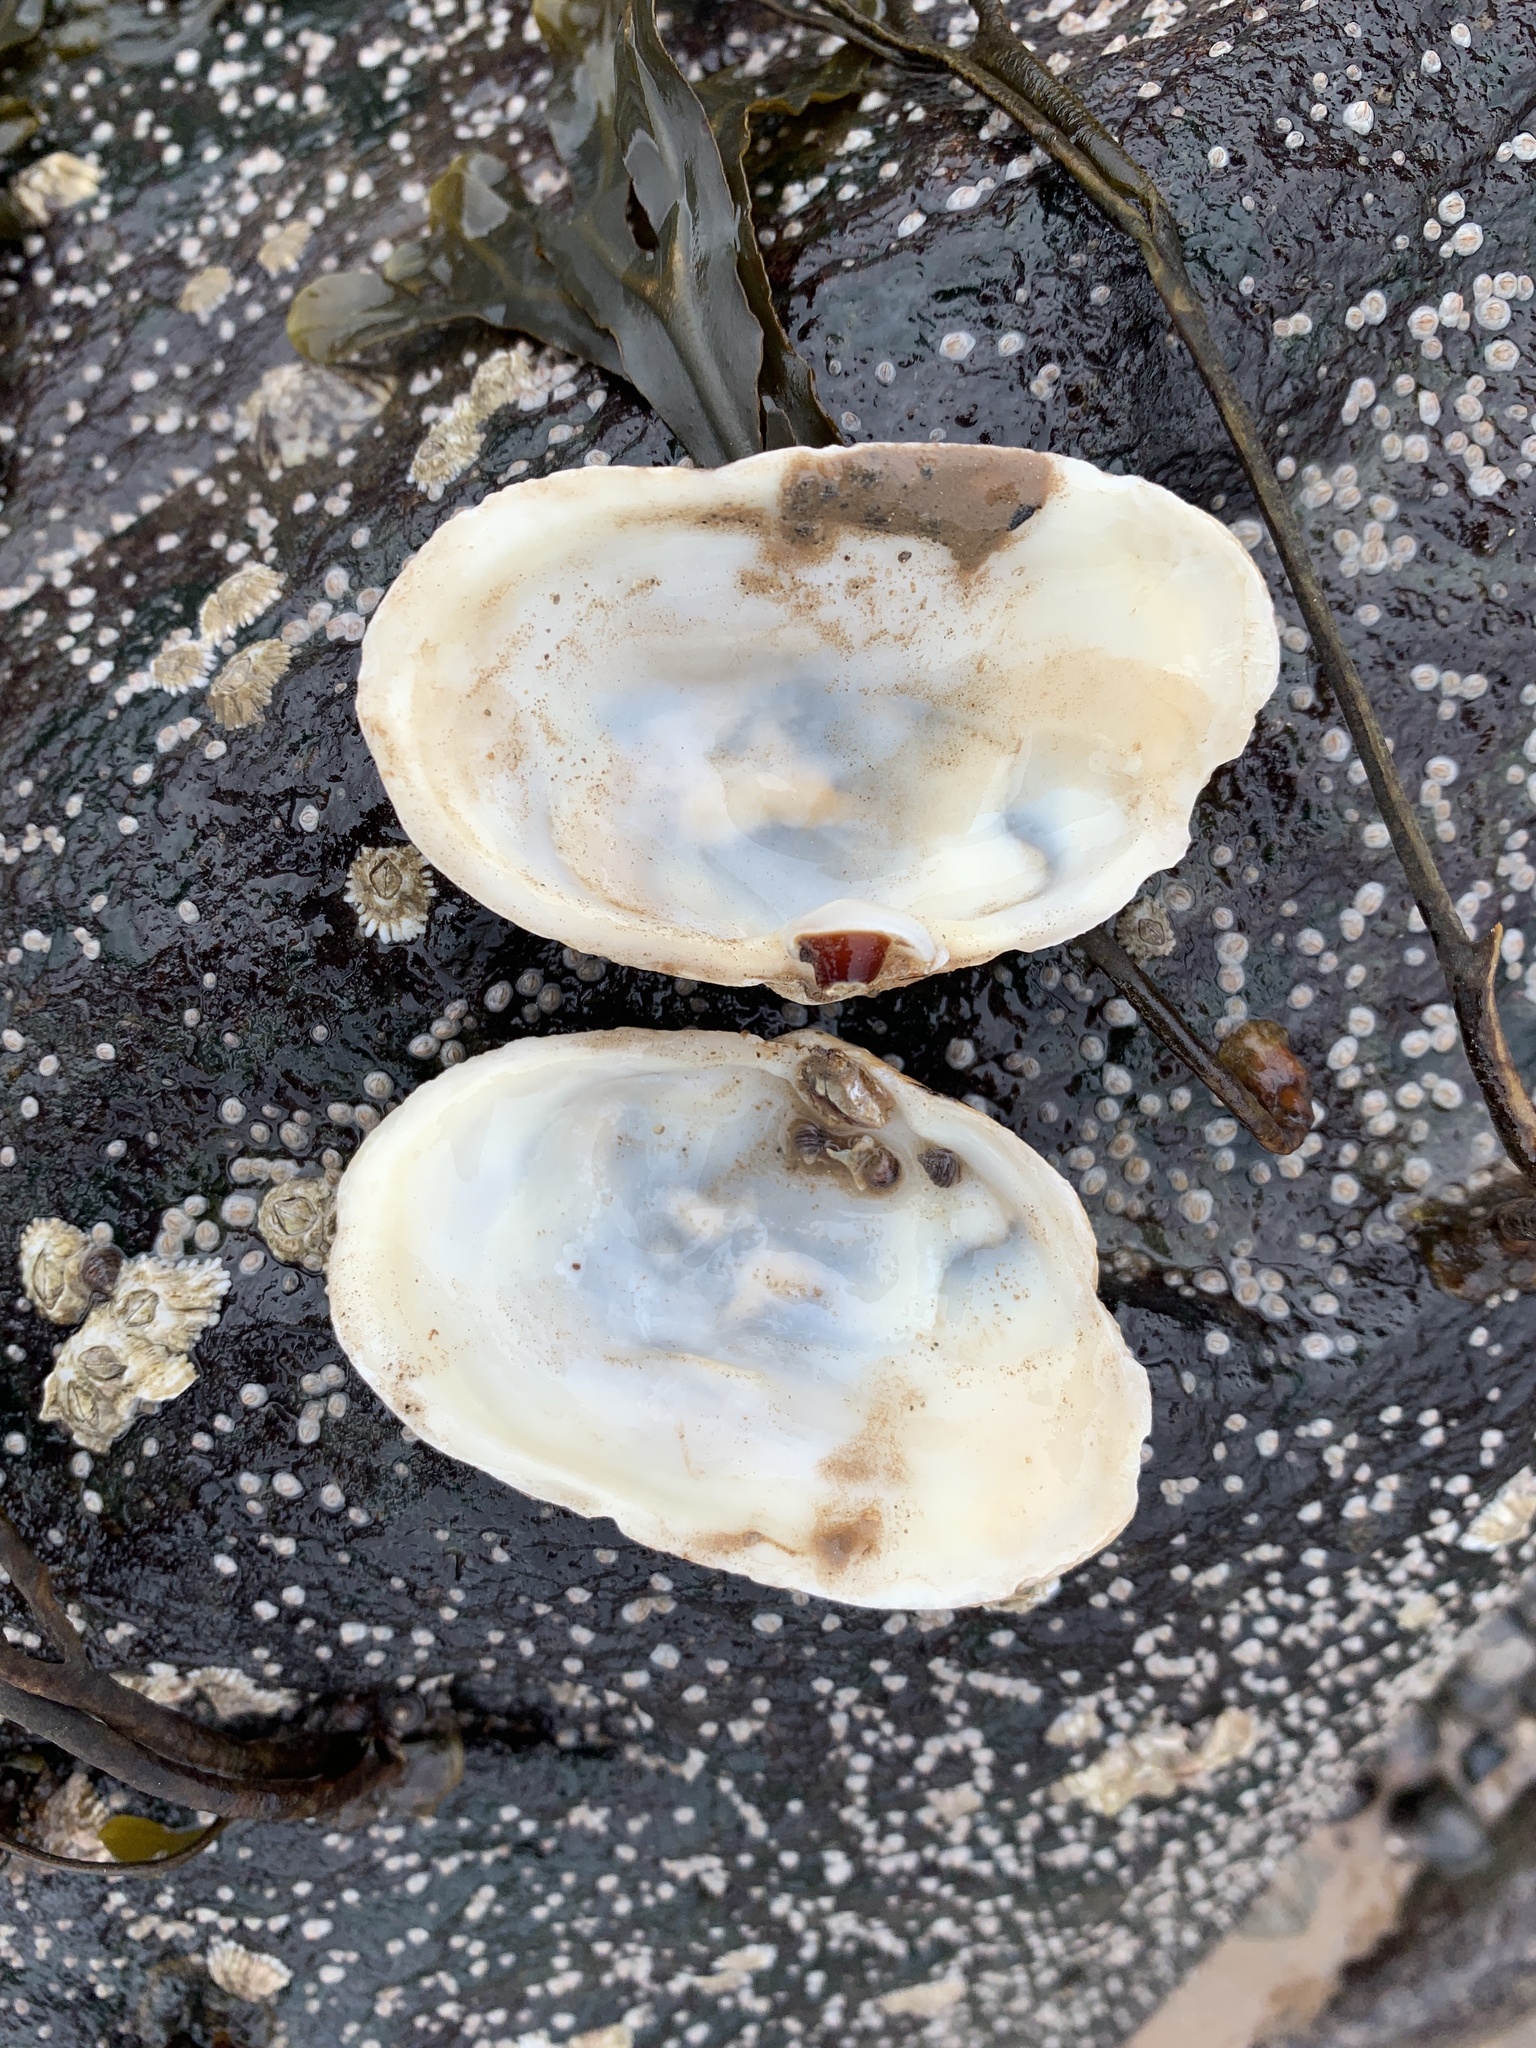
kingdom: Animalia
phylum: Mollusca
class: Bivalvia
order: Myida
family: Myidae
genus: Mya
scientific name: Mya arenaria
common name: Soft-shelled clam
